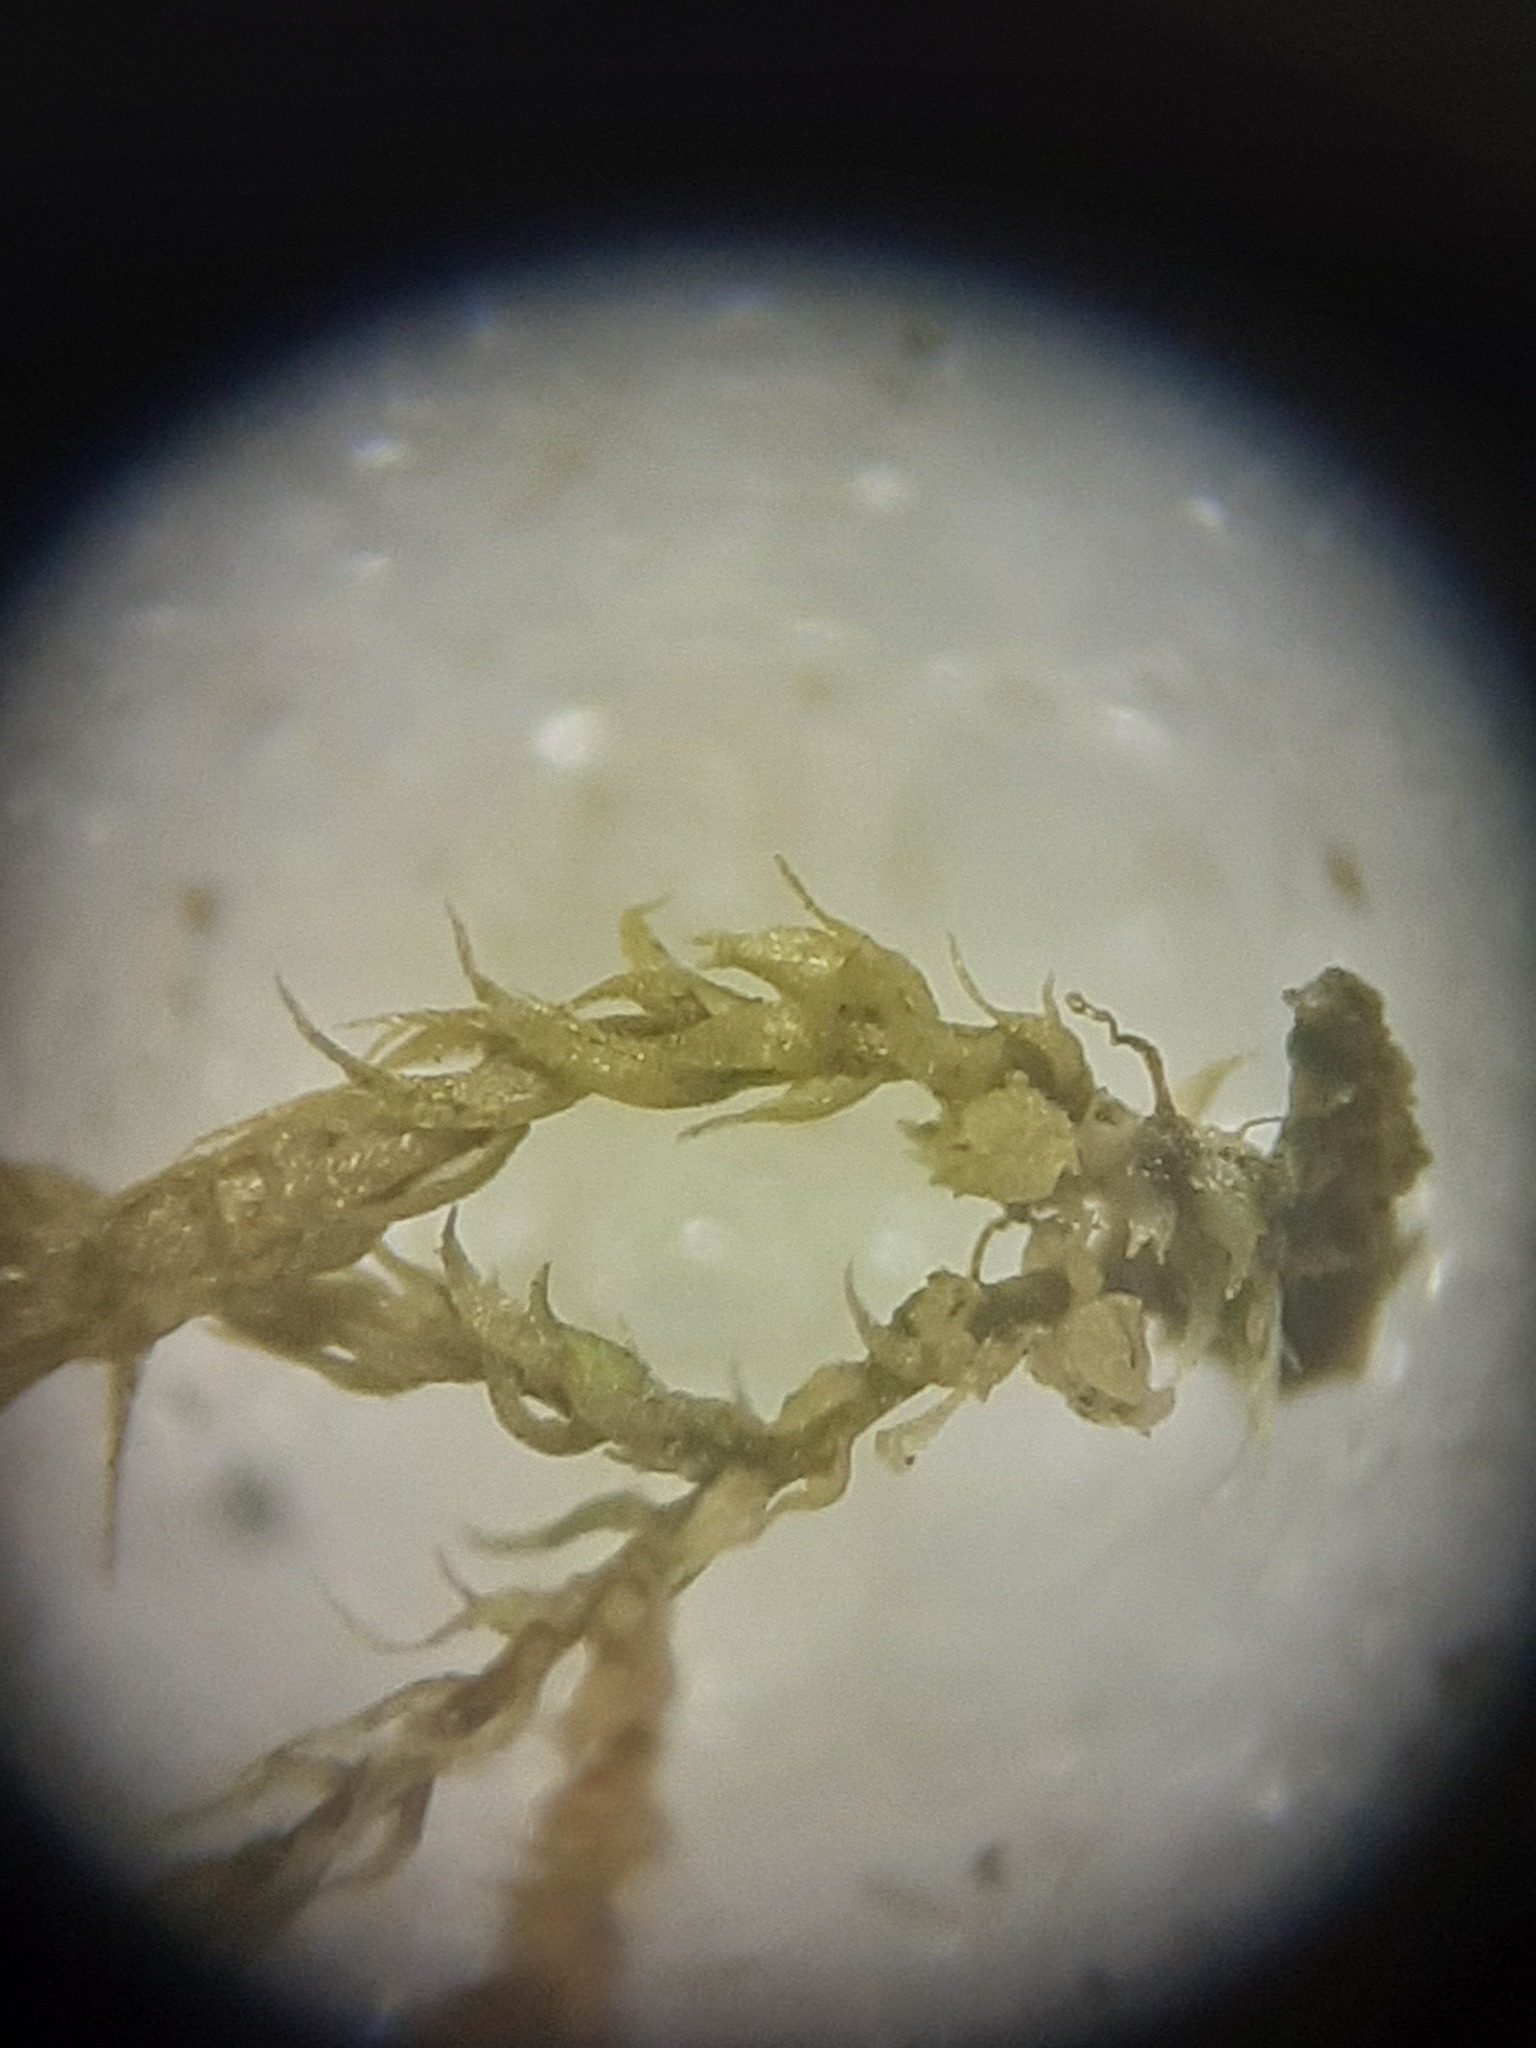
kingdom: Plantae
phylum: Bryophyta
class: Bryopsida
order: Hypnales
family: Leskeaceae
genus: Leskea
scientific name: Leskea polycarpa
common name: Many-fruited leske's moss
